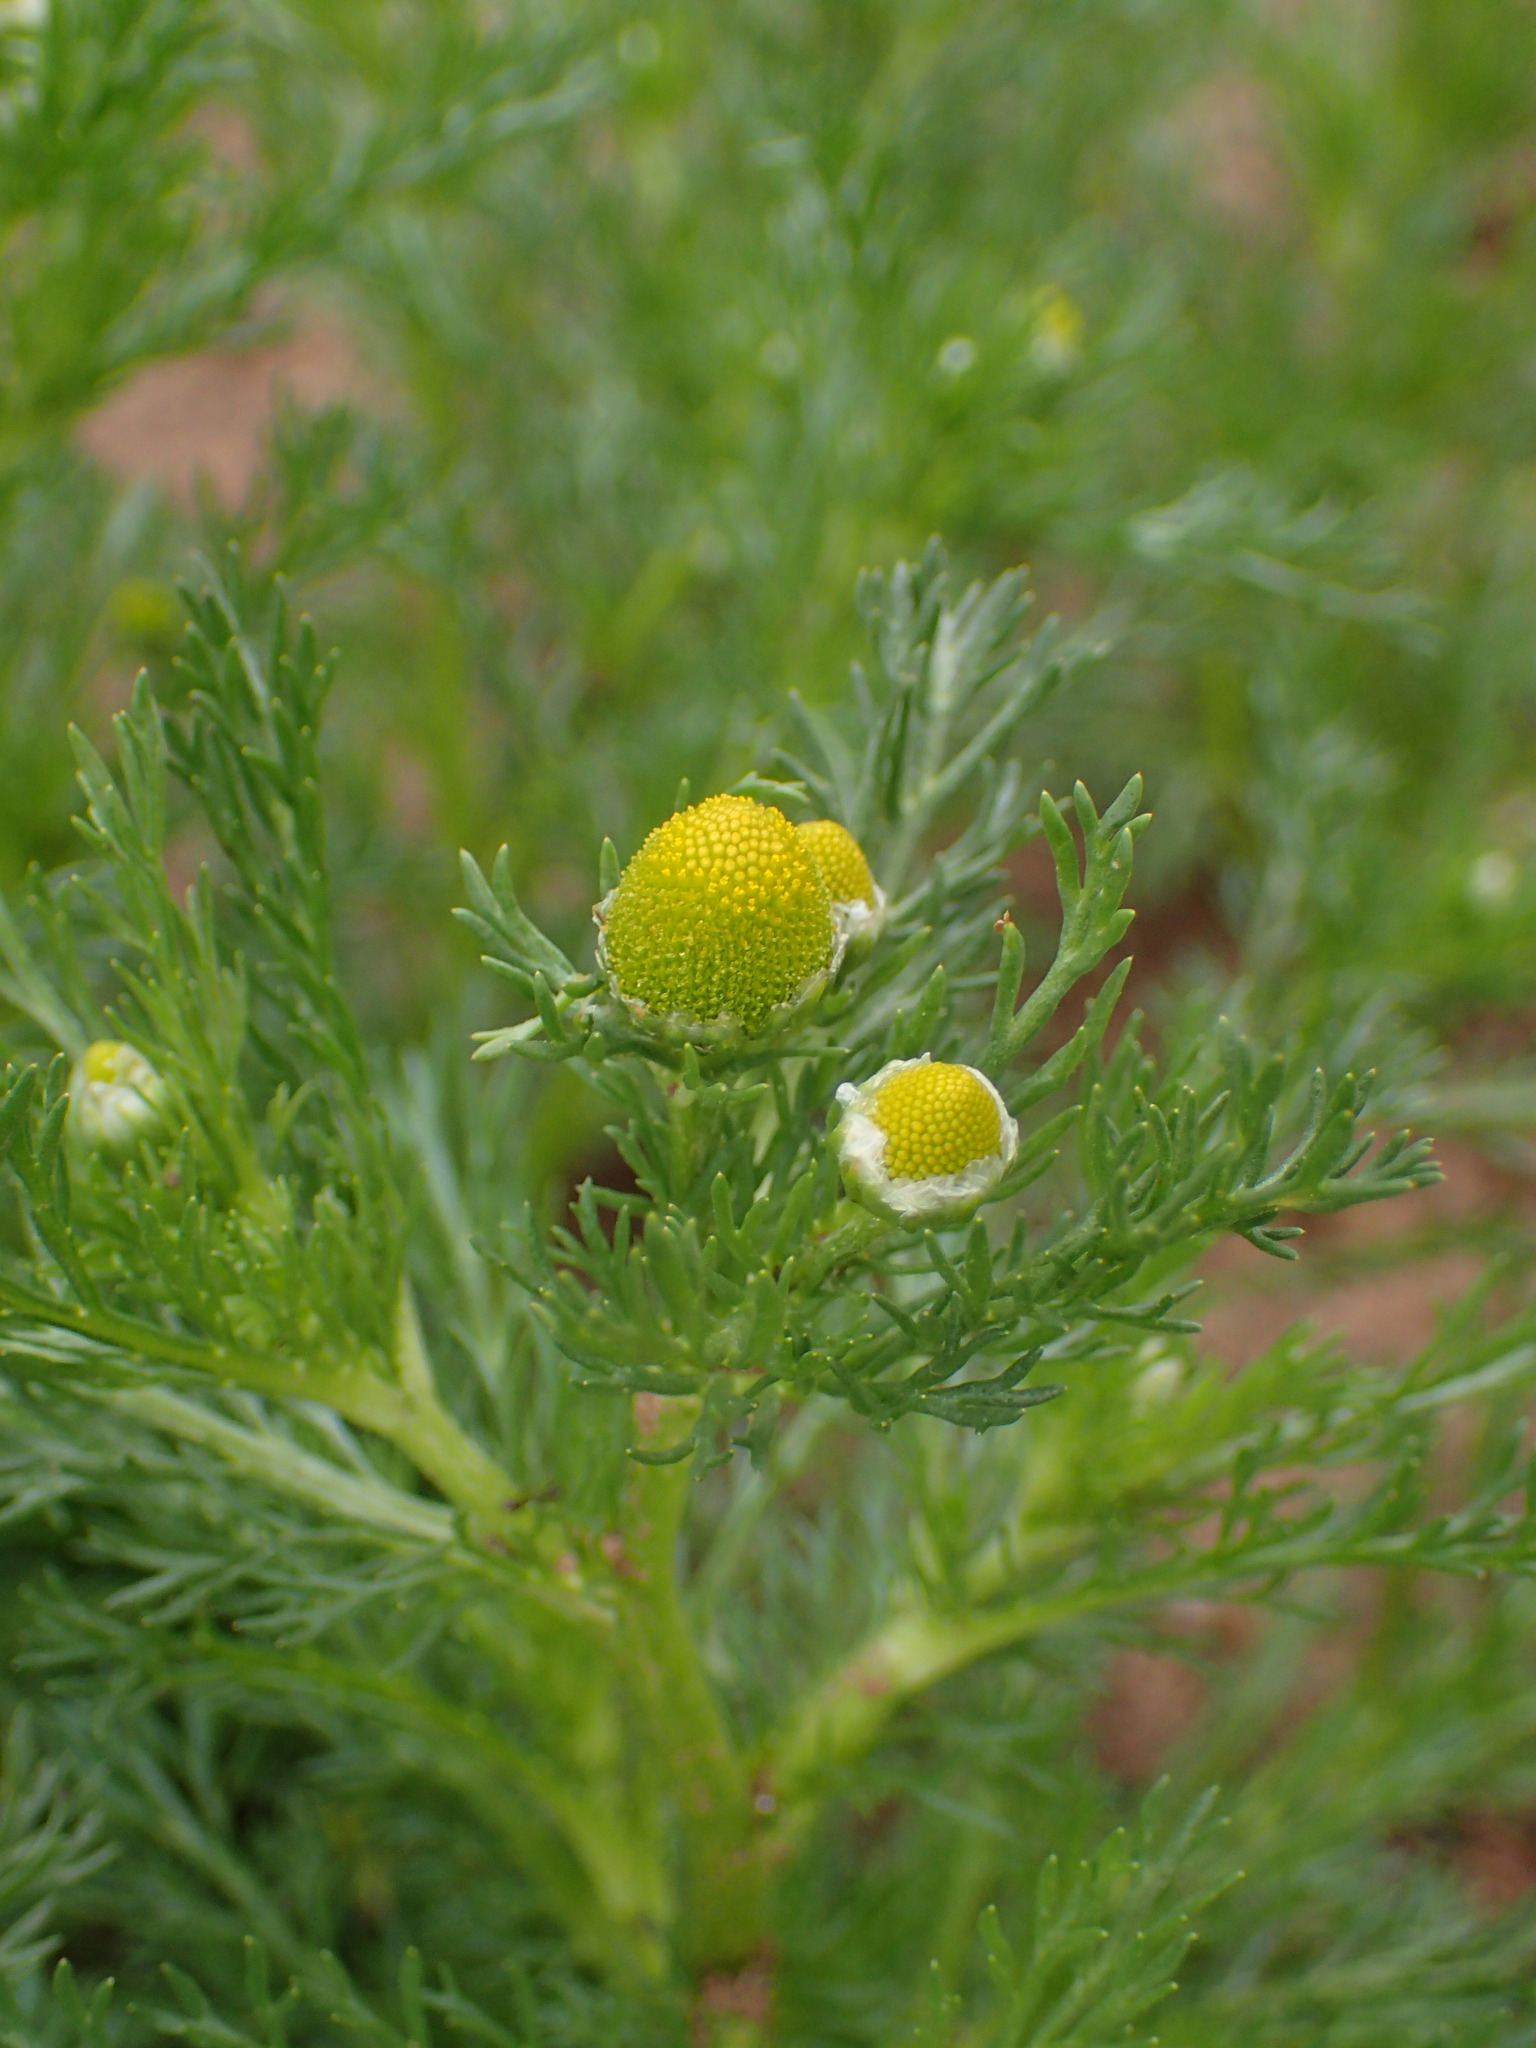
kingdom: Plantae
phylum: Tracheophyta
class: Magnoliopsida
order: Asterales
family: Asteraceae
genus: Matricaria
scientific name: Matricaria discoidea
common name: Disc mayweed
